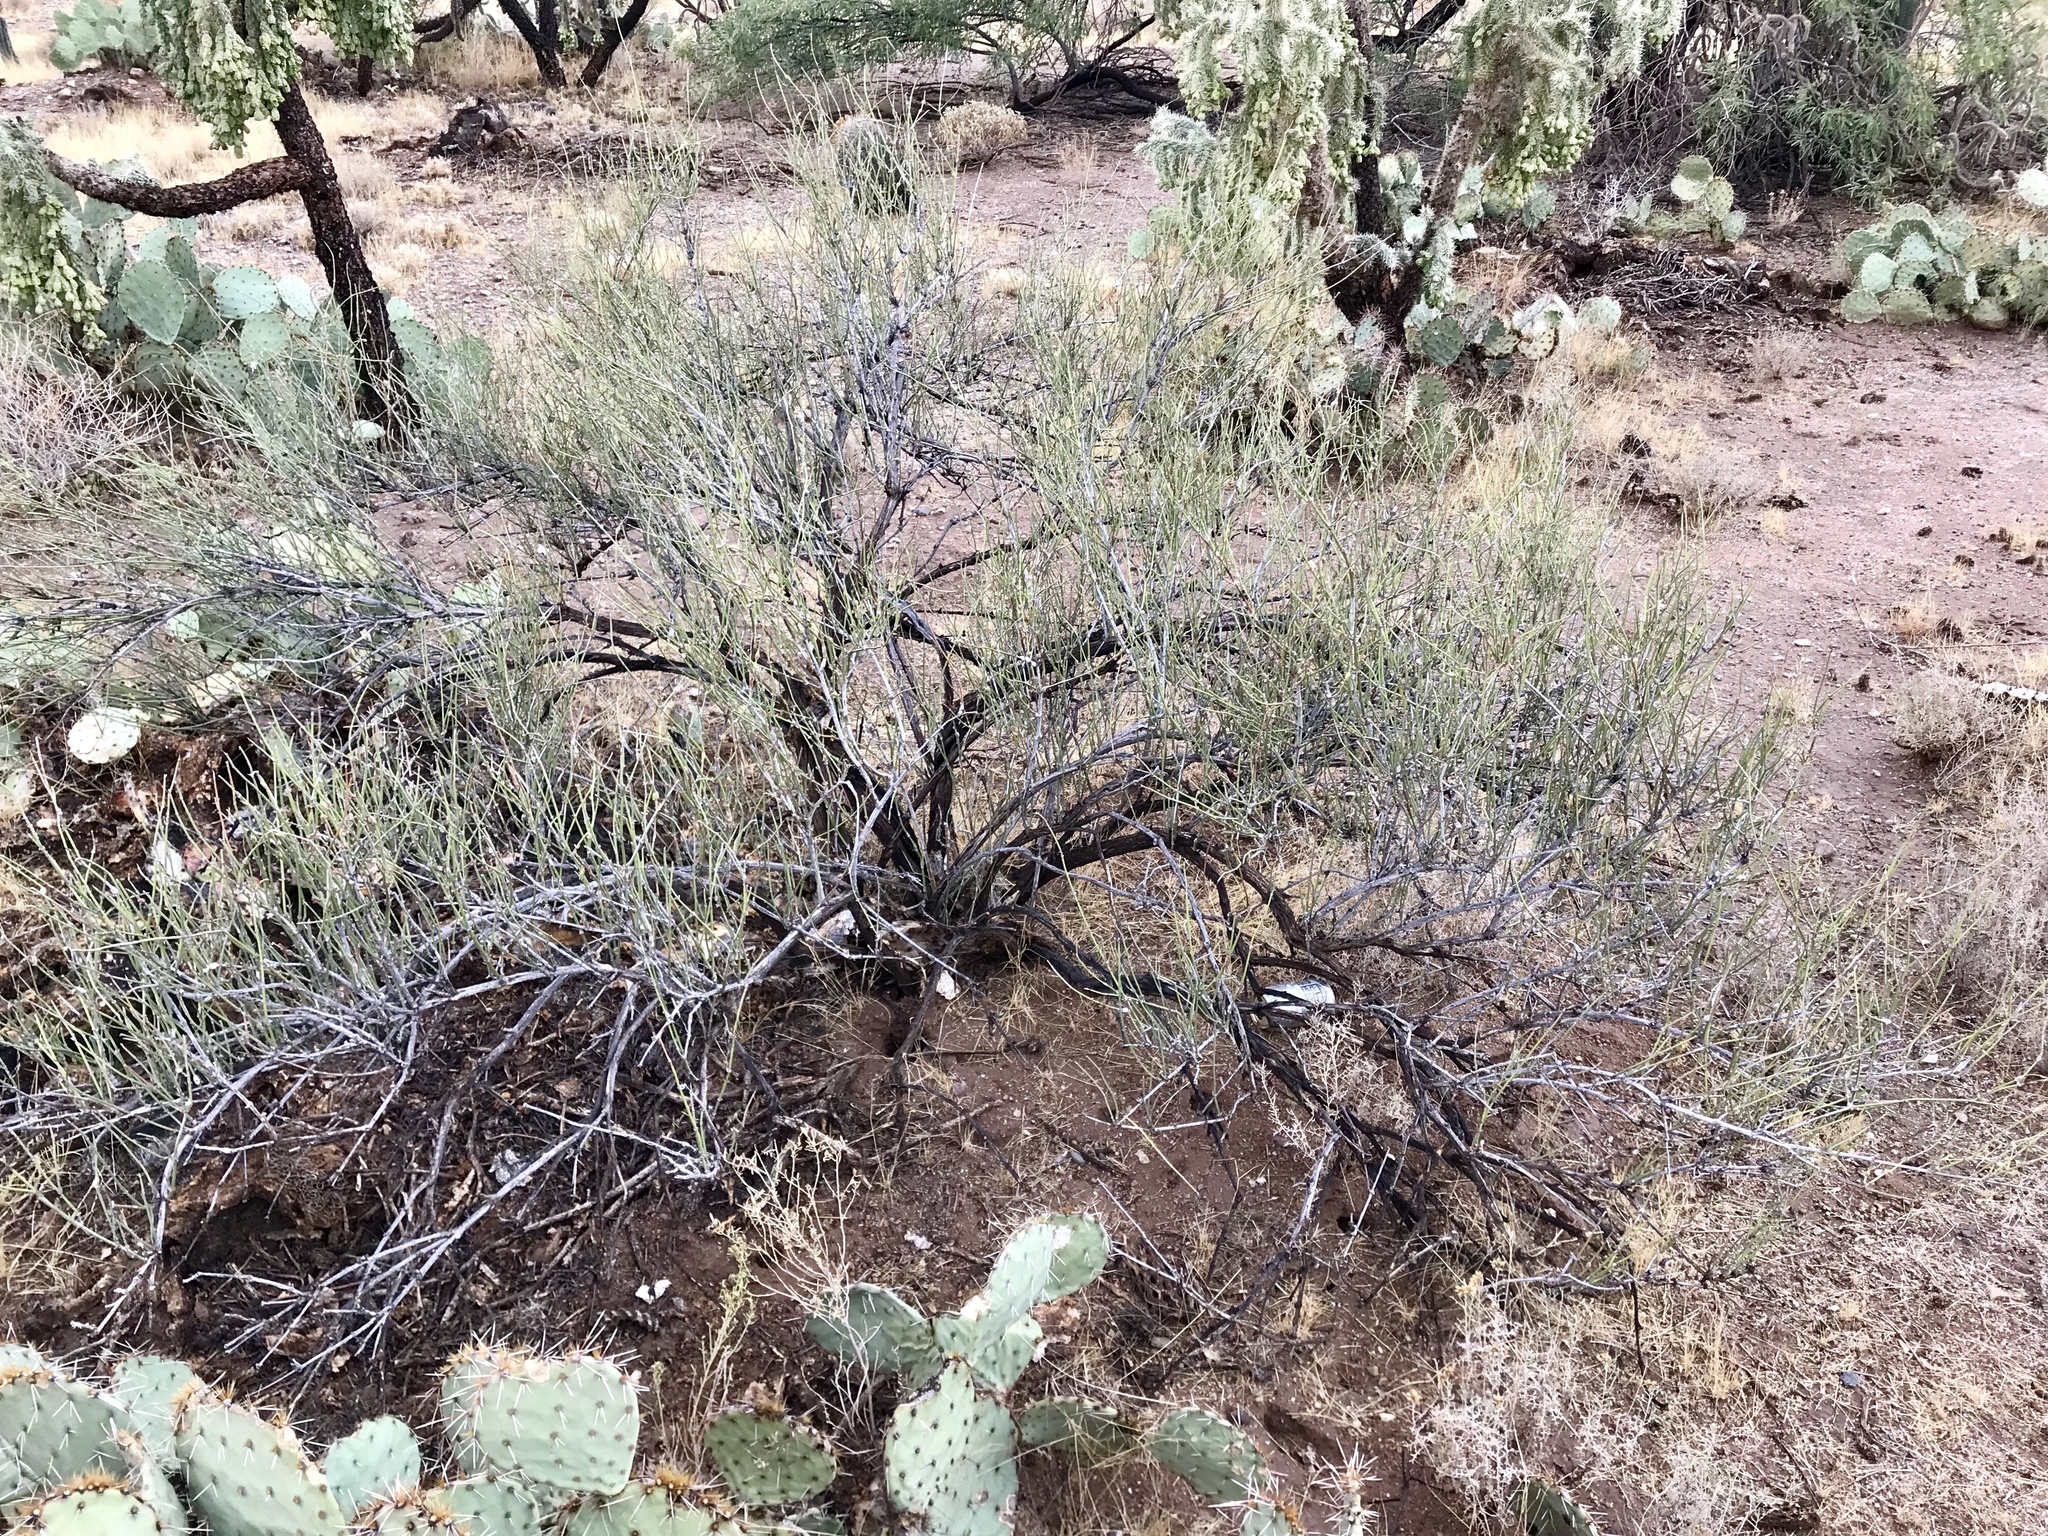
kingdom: Plantae
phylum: Tracheophyta
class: Gnetopsida
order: Ephedrales
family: Ephedraceae
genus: Ephedra
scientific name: Ephedra trifurca
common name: Mexican-tea
